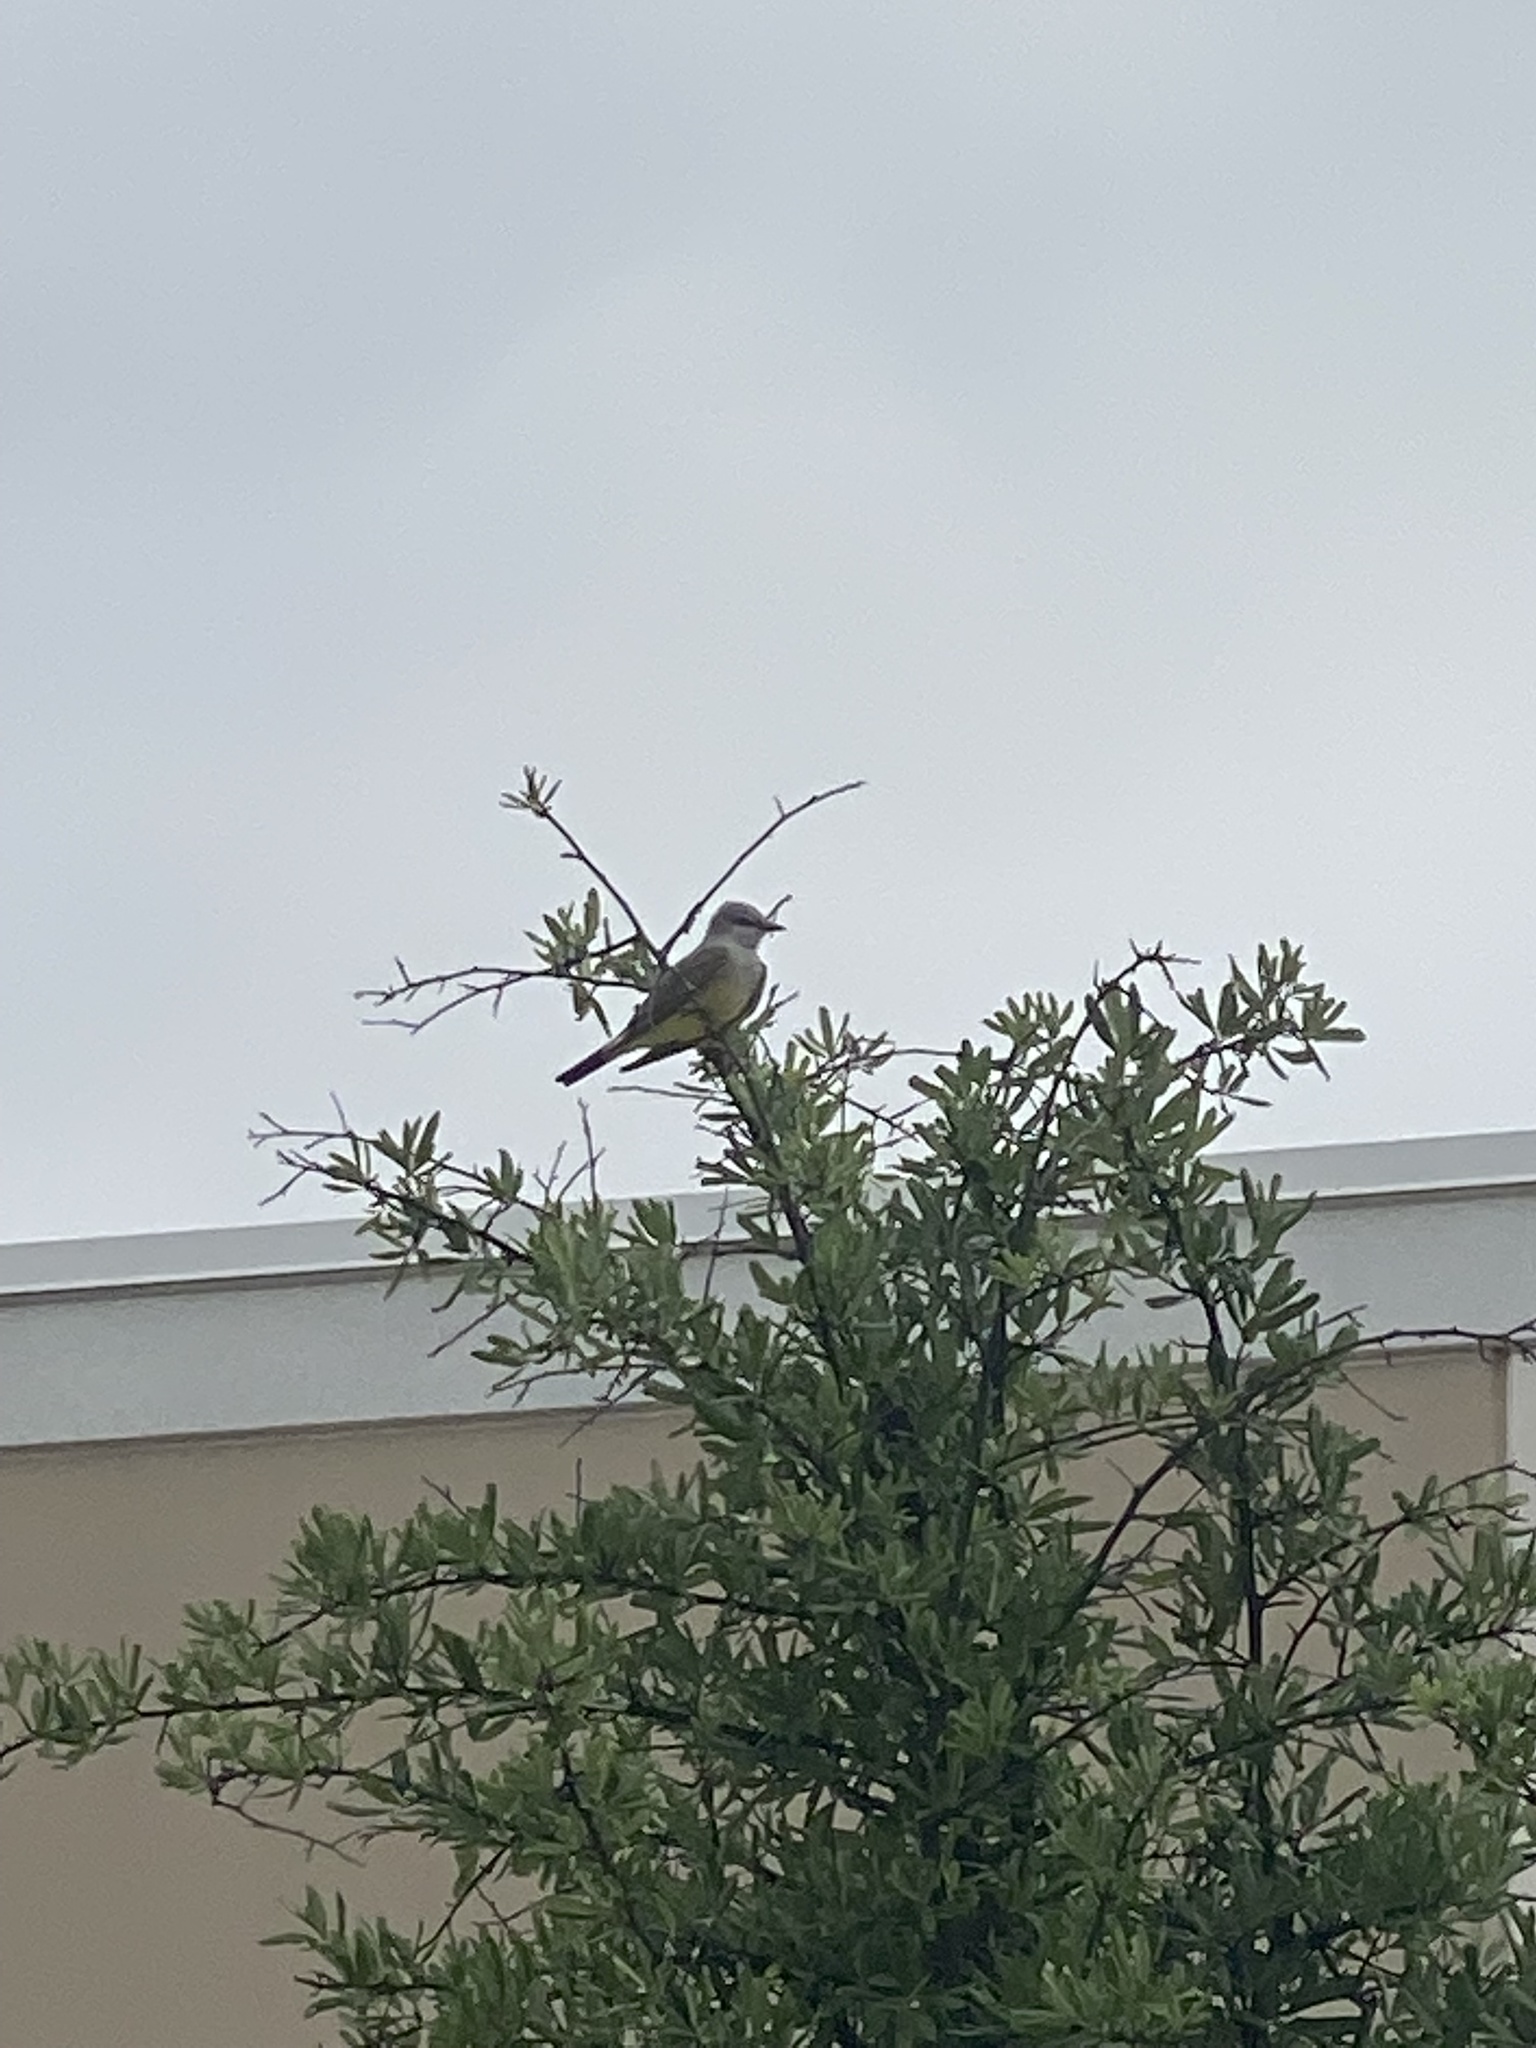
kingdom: Animalia
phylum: Chordata
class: Aves
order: Passeriformes
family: Tyrannidae
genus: Tyrannus
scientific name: Tyrannus verticalis
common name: Western kingbird
